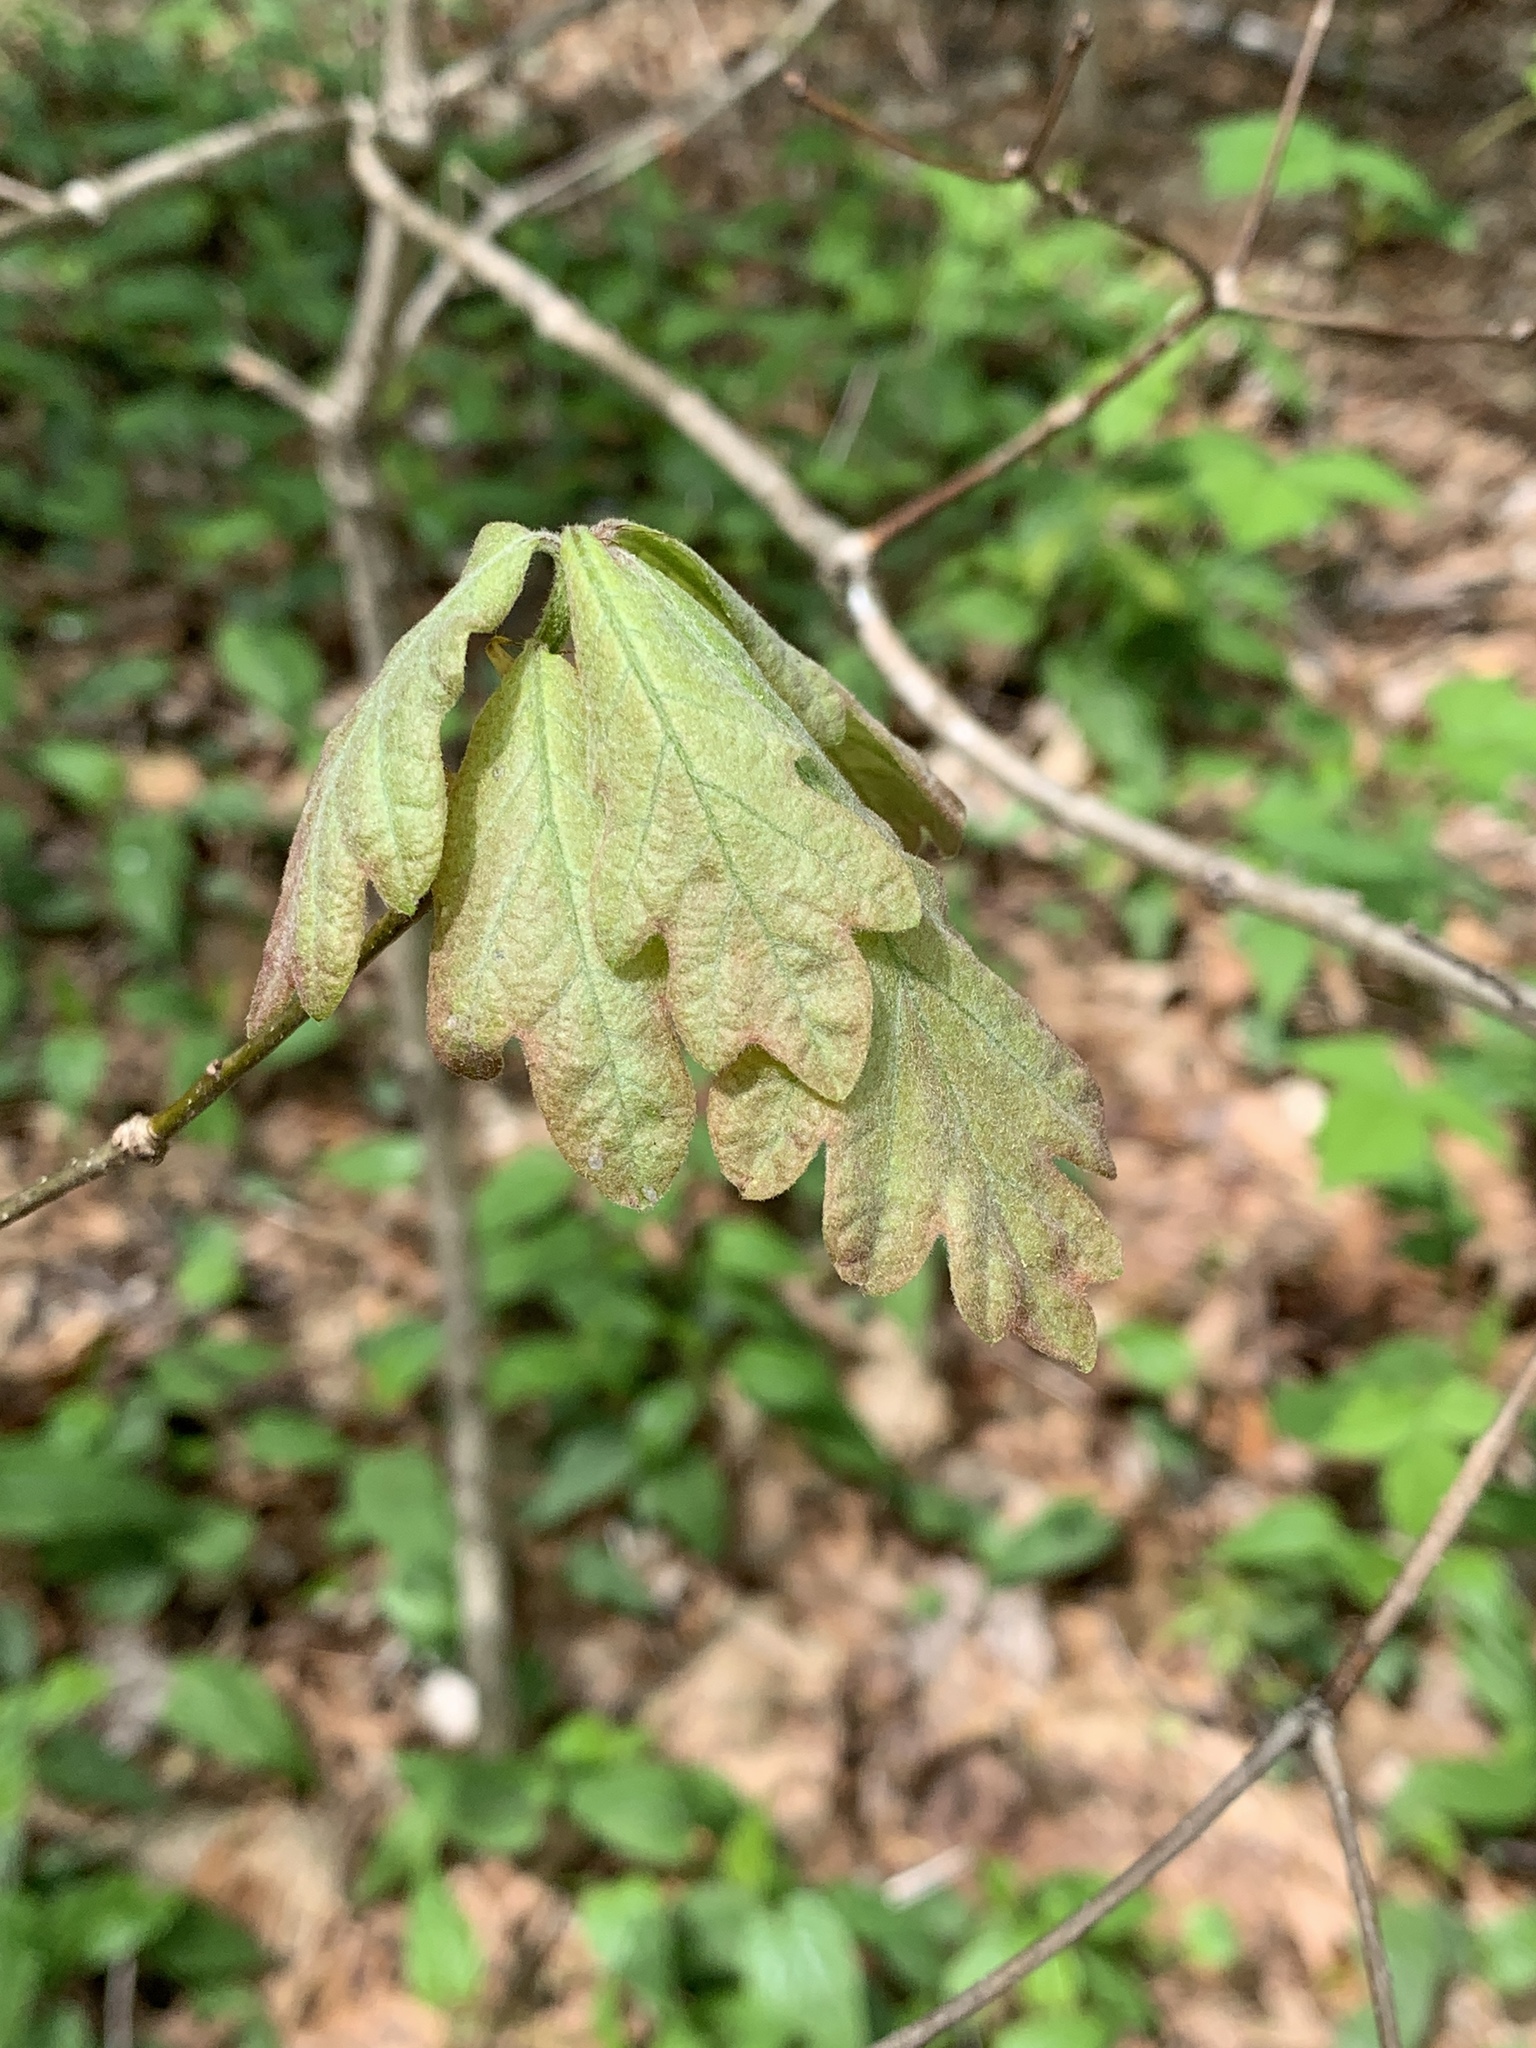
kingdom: Plantae
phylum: Tracheophyta
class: Magnoliopsida
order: Fagales
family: Fagaceae
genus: Quercus
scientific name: Quercus alba
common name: White oak
